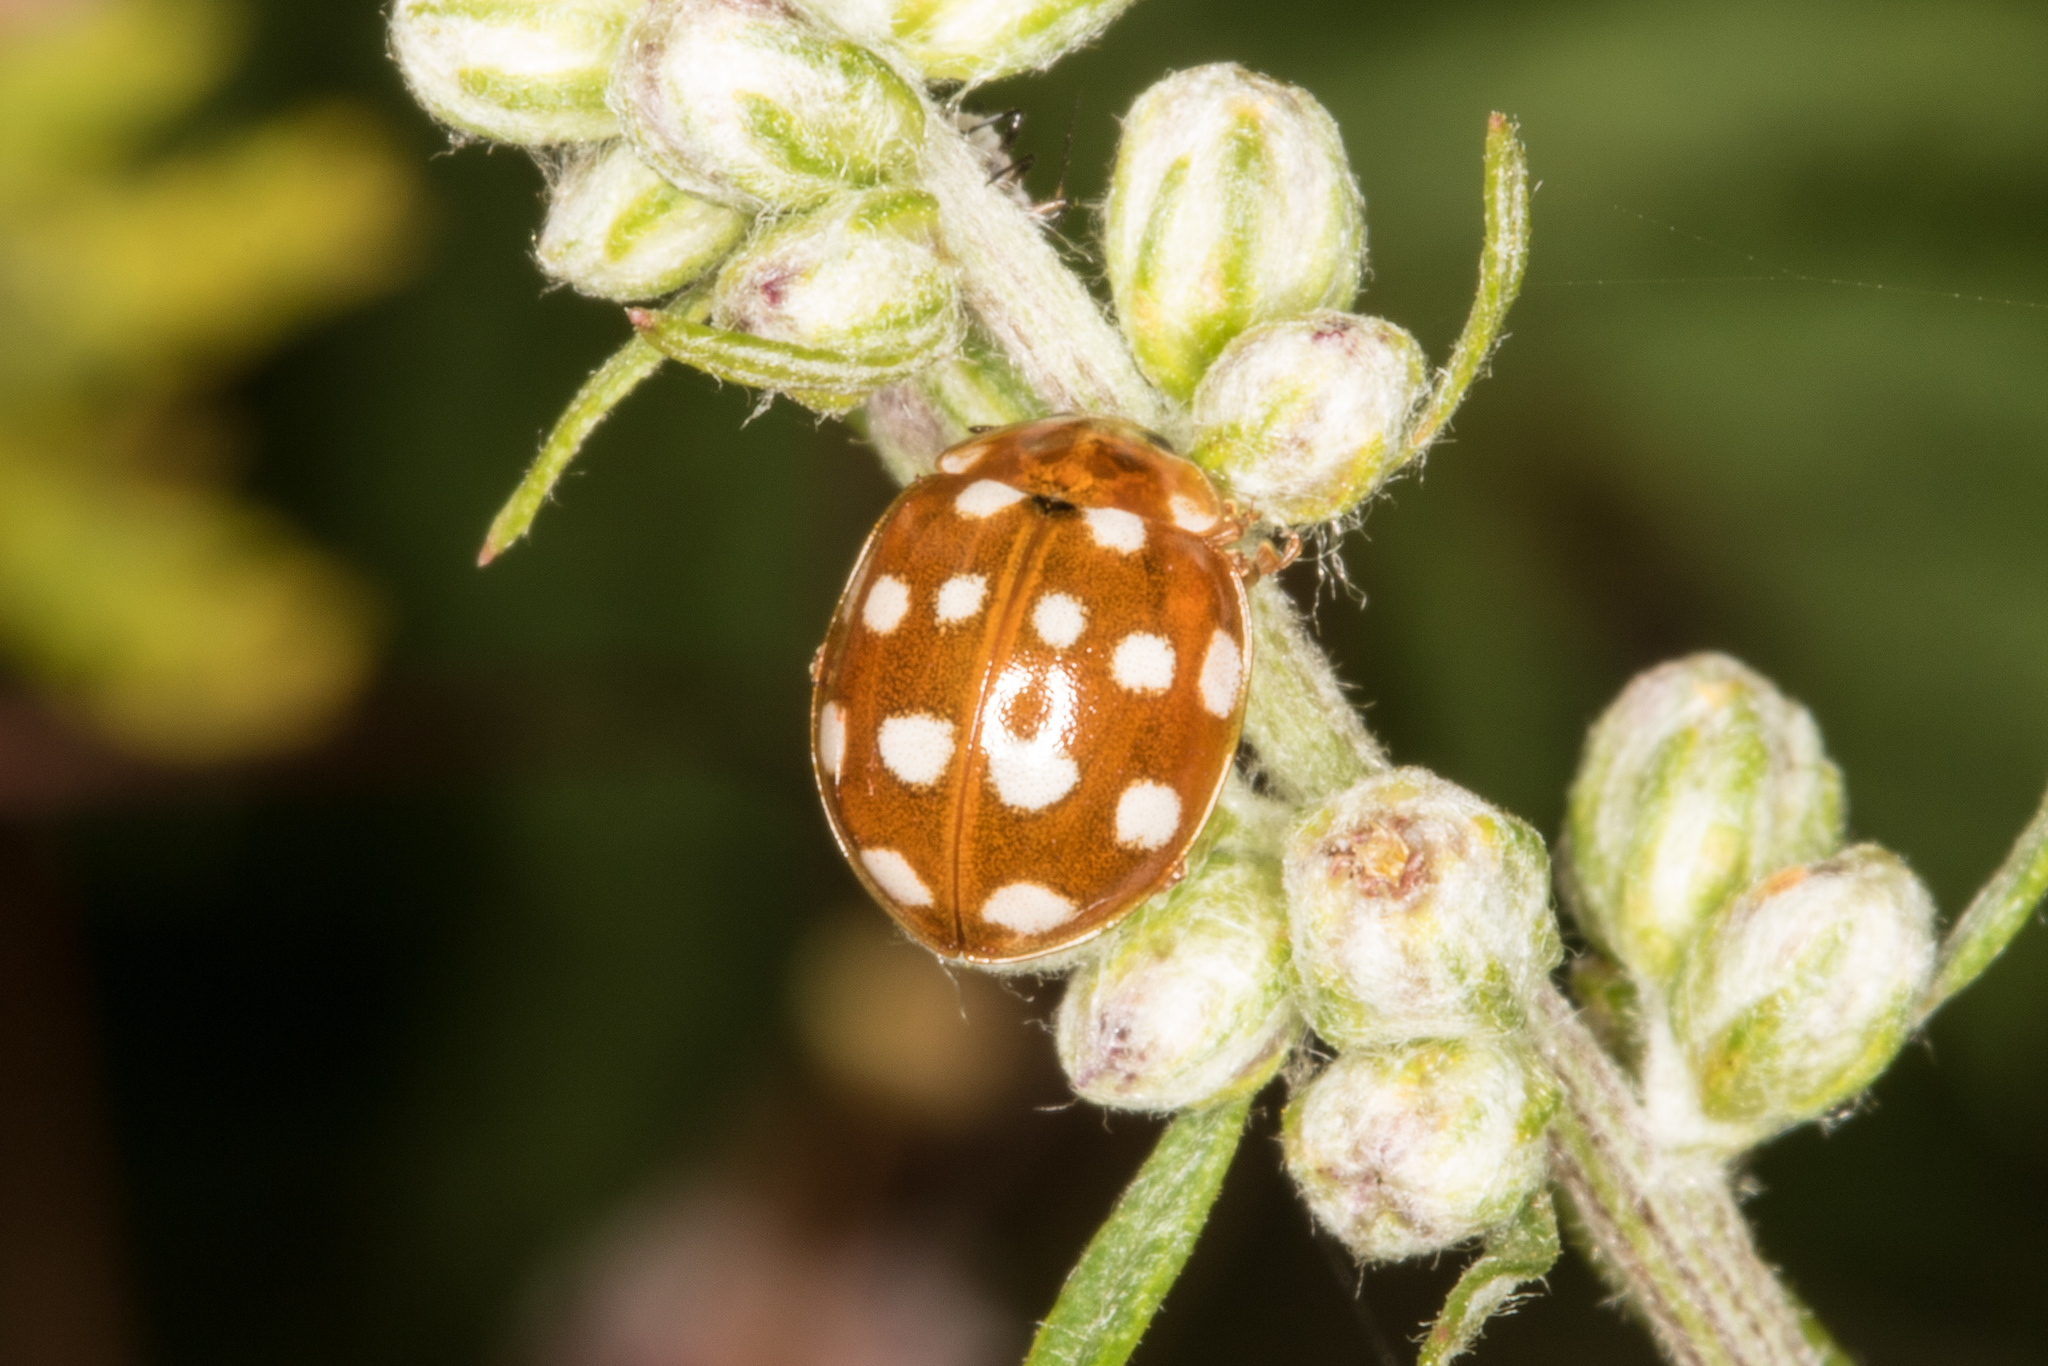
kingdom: Animalia
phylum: Arthropoda
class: Insecta
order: Coleoptera
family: Coccinellidae
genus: Calvia
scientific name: Calvia quatuordecimguttata
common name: Cream-spot ladybird
